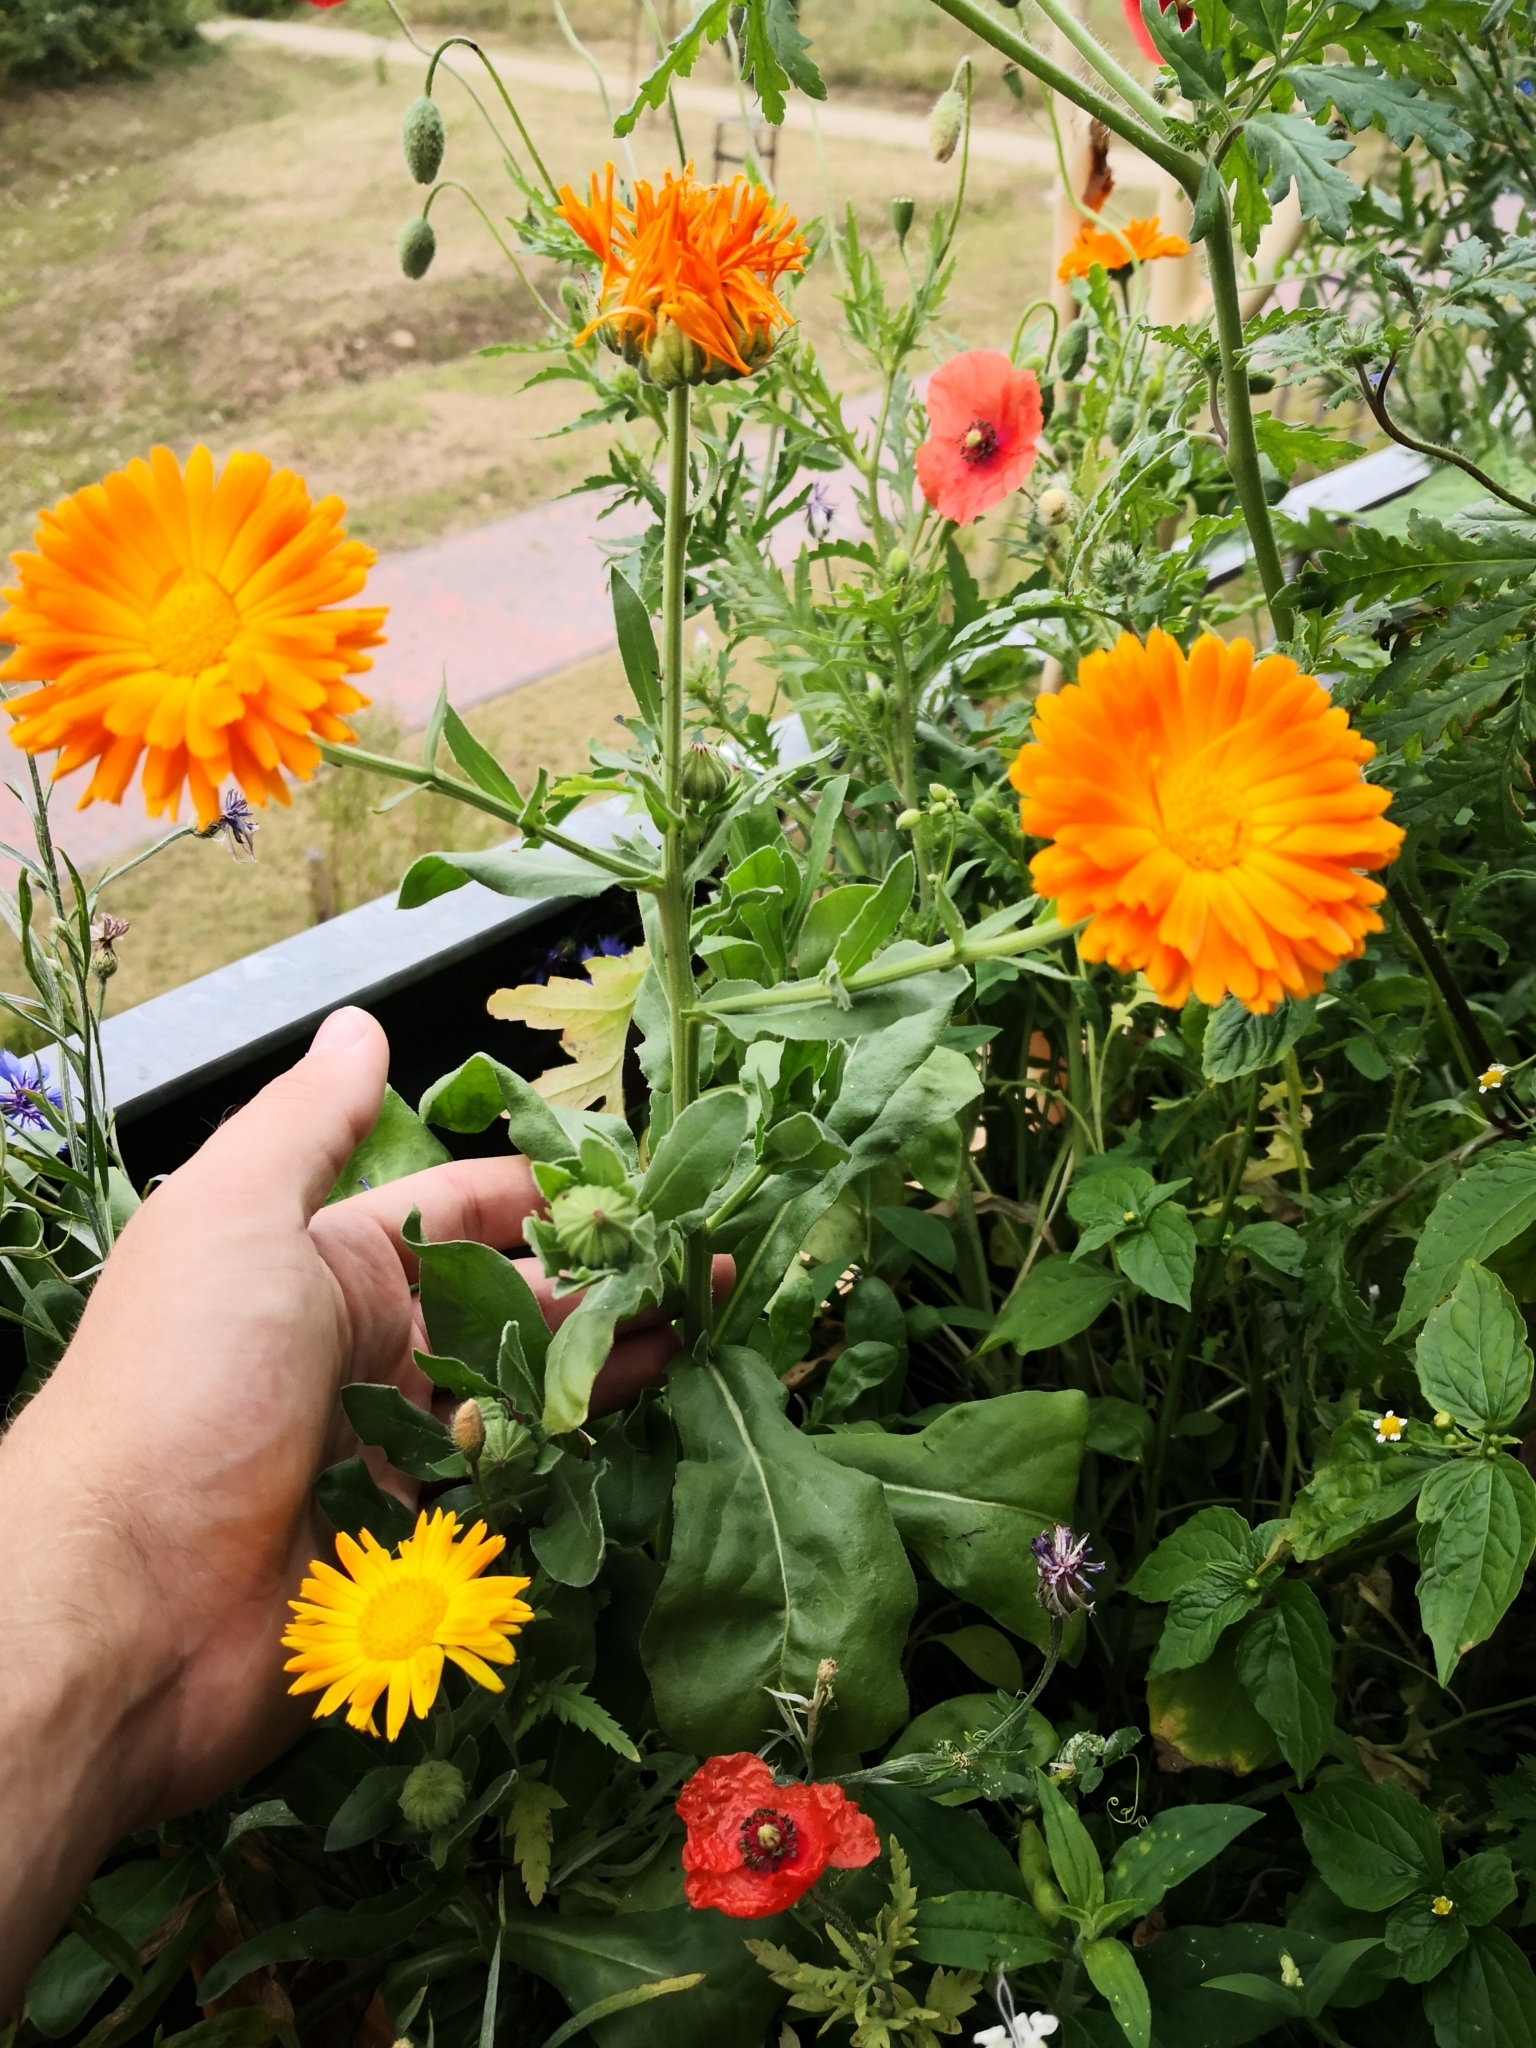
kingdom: Plantae
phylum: Tracheophyta
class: Magnoliopsida
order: Asterales
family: Asteraceae
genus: Calendula
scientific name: Calendula officinalis
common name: Pot marigold
